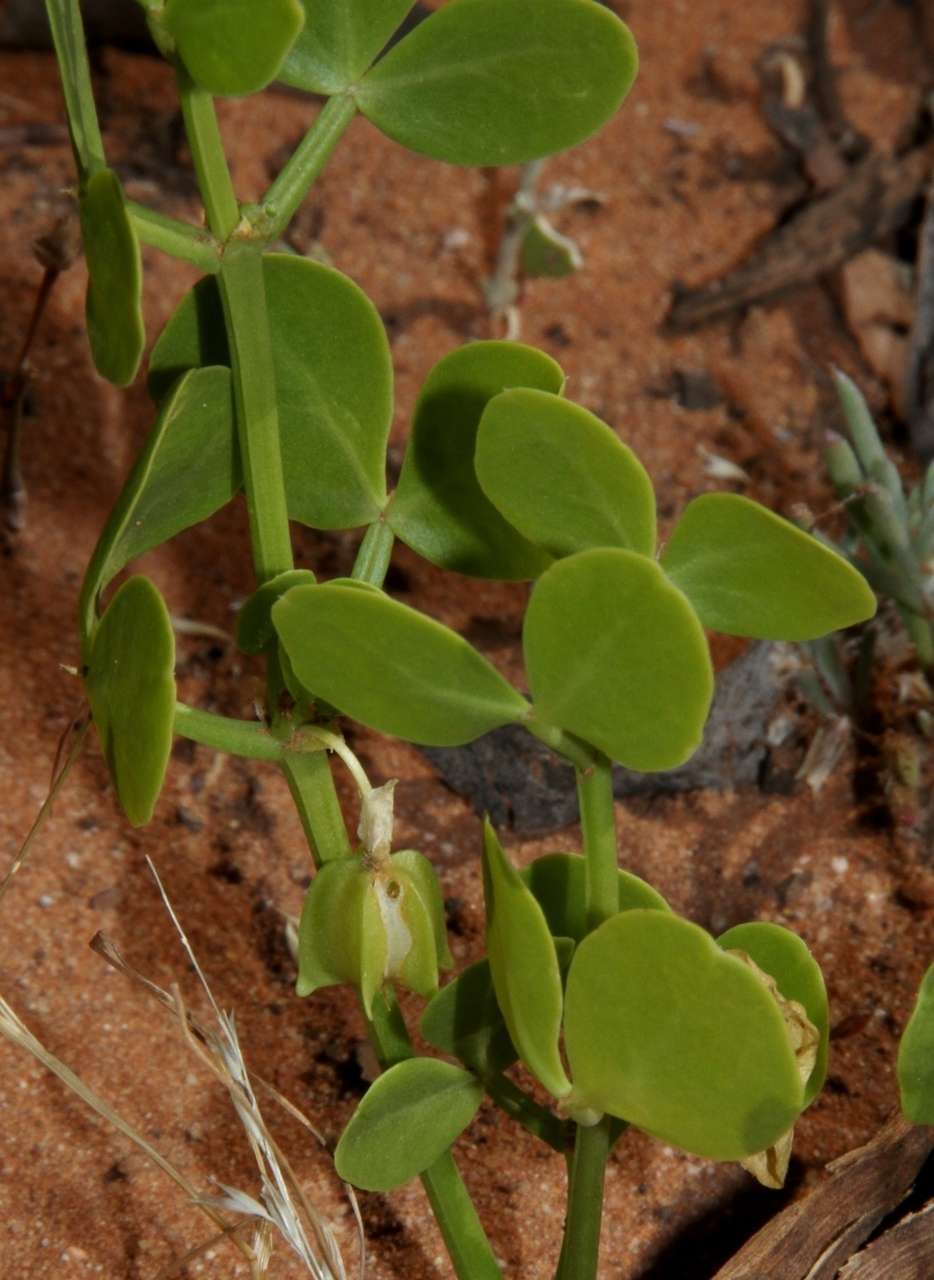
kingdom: Plantae
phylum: Tracheophyta
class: Magnoliopsida
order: Zygophyllales
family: Zygophyllaceae
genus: Roepera
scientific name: Roepera apiculata
